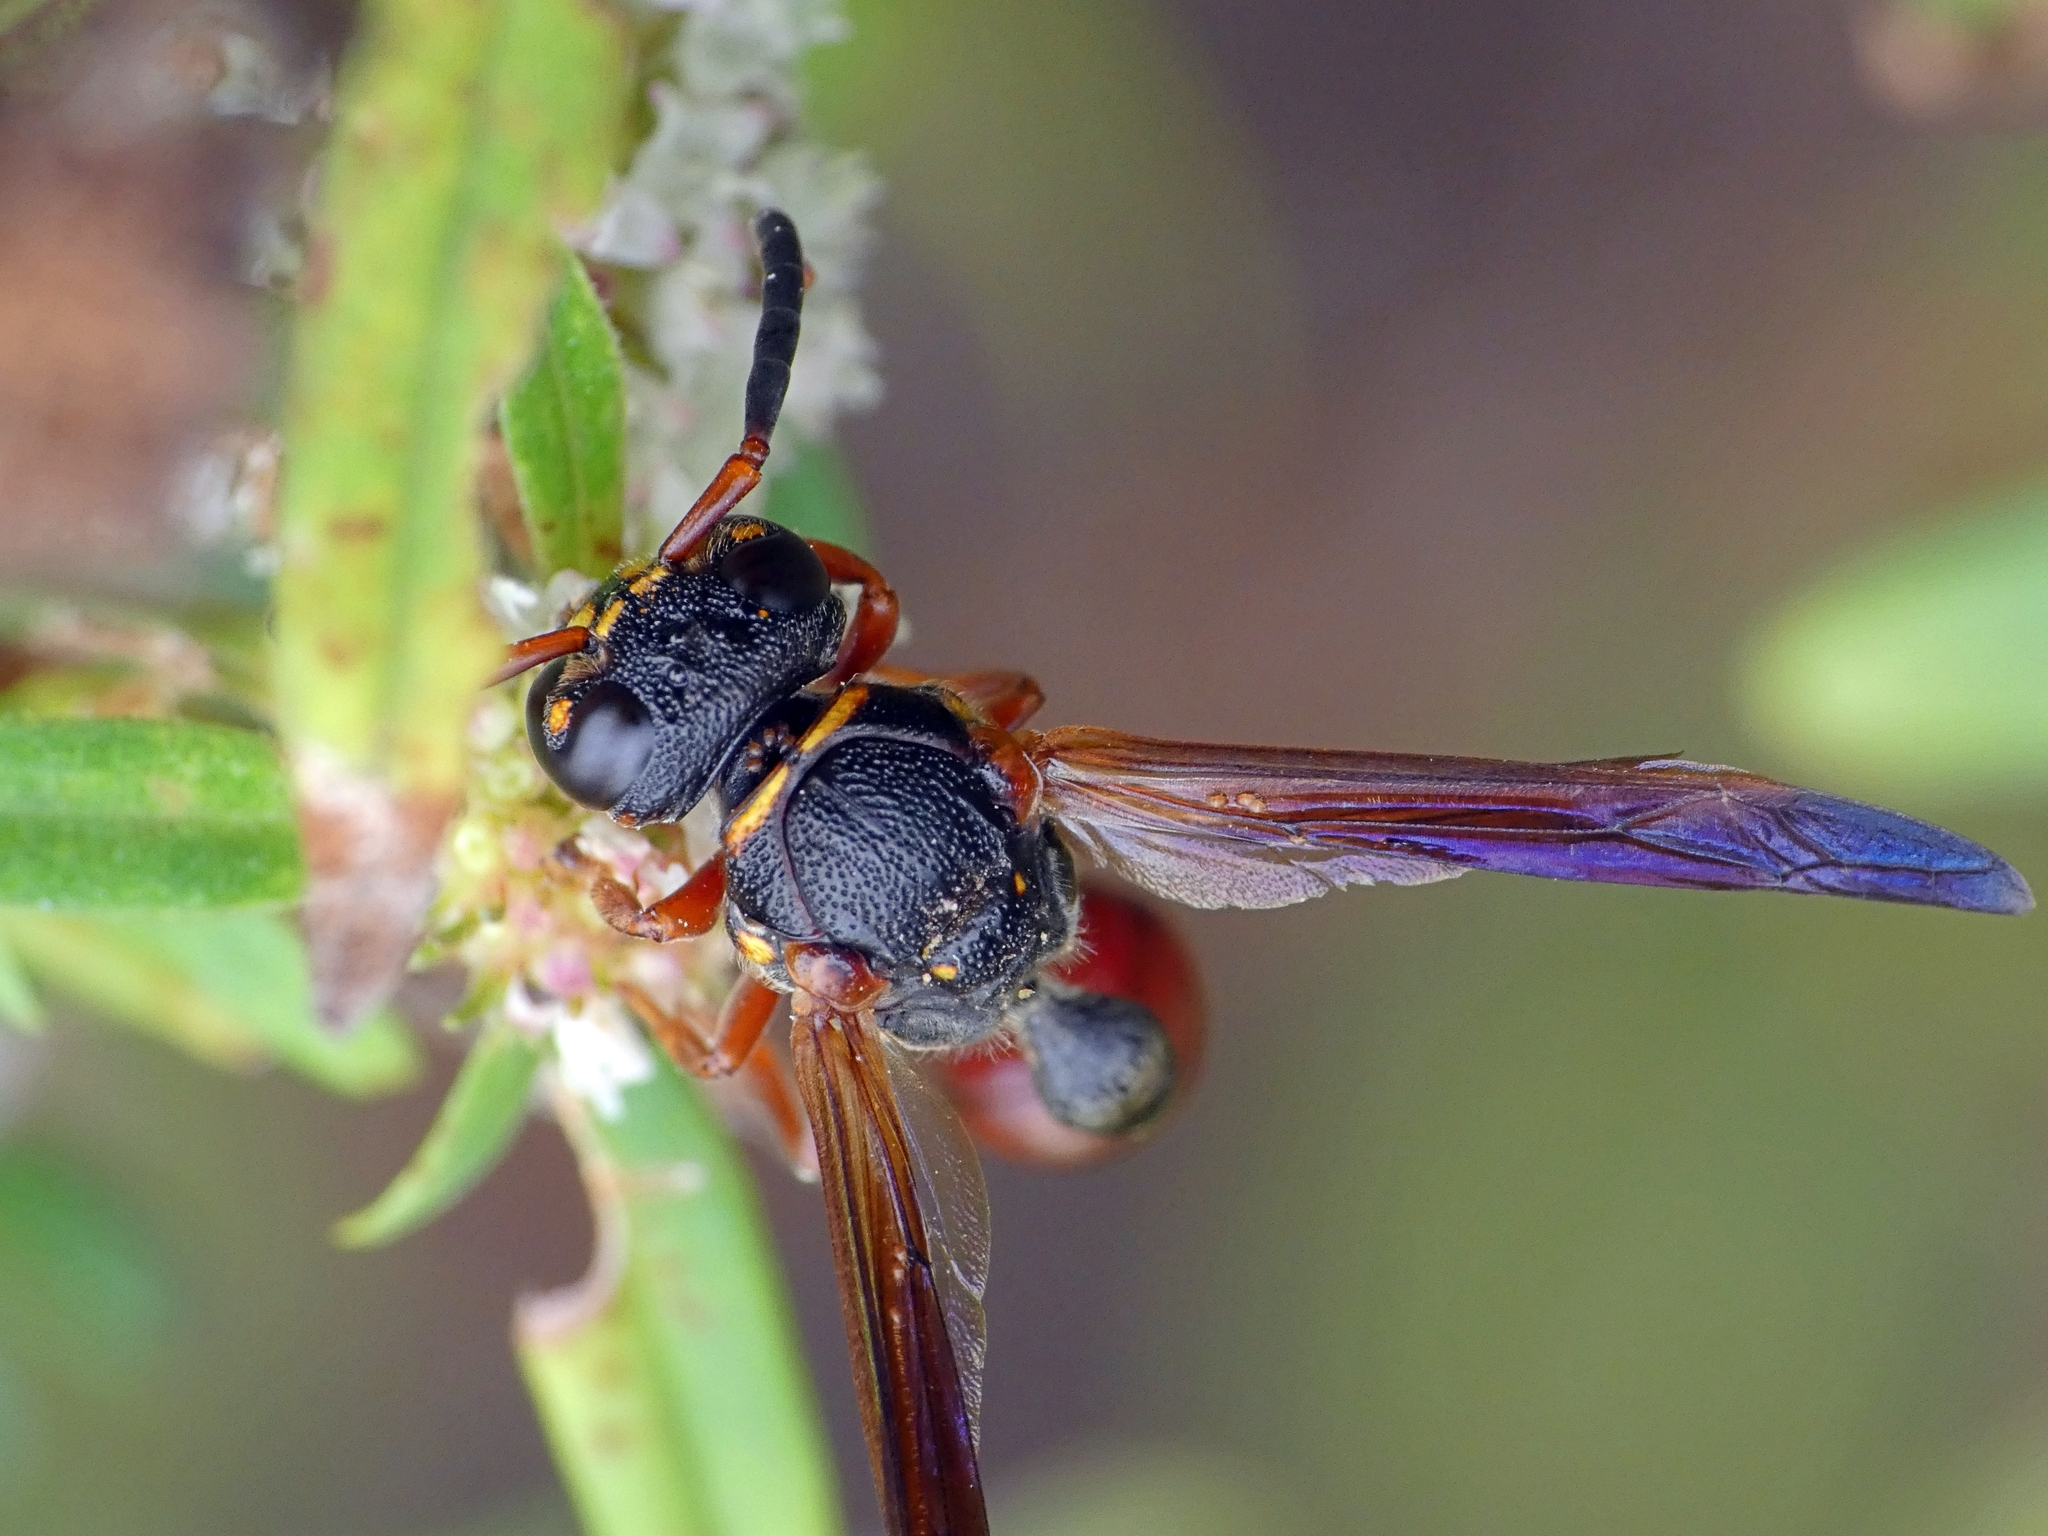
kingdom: Animalia
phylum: Arthropoda
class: Insecta
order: Hymenoptera
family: Eumenidae
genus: Zethus
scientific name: Zethus slossonae
